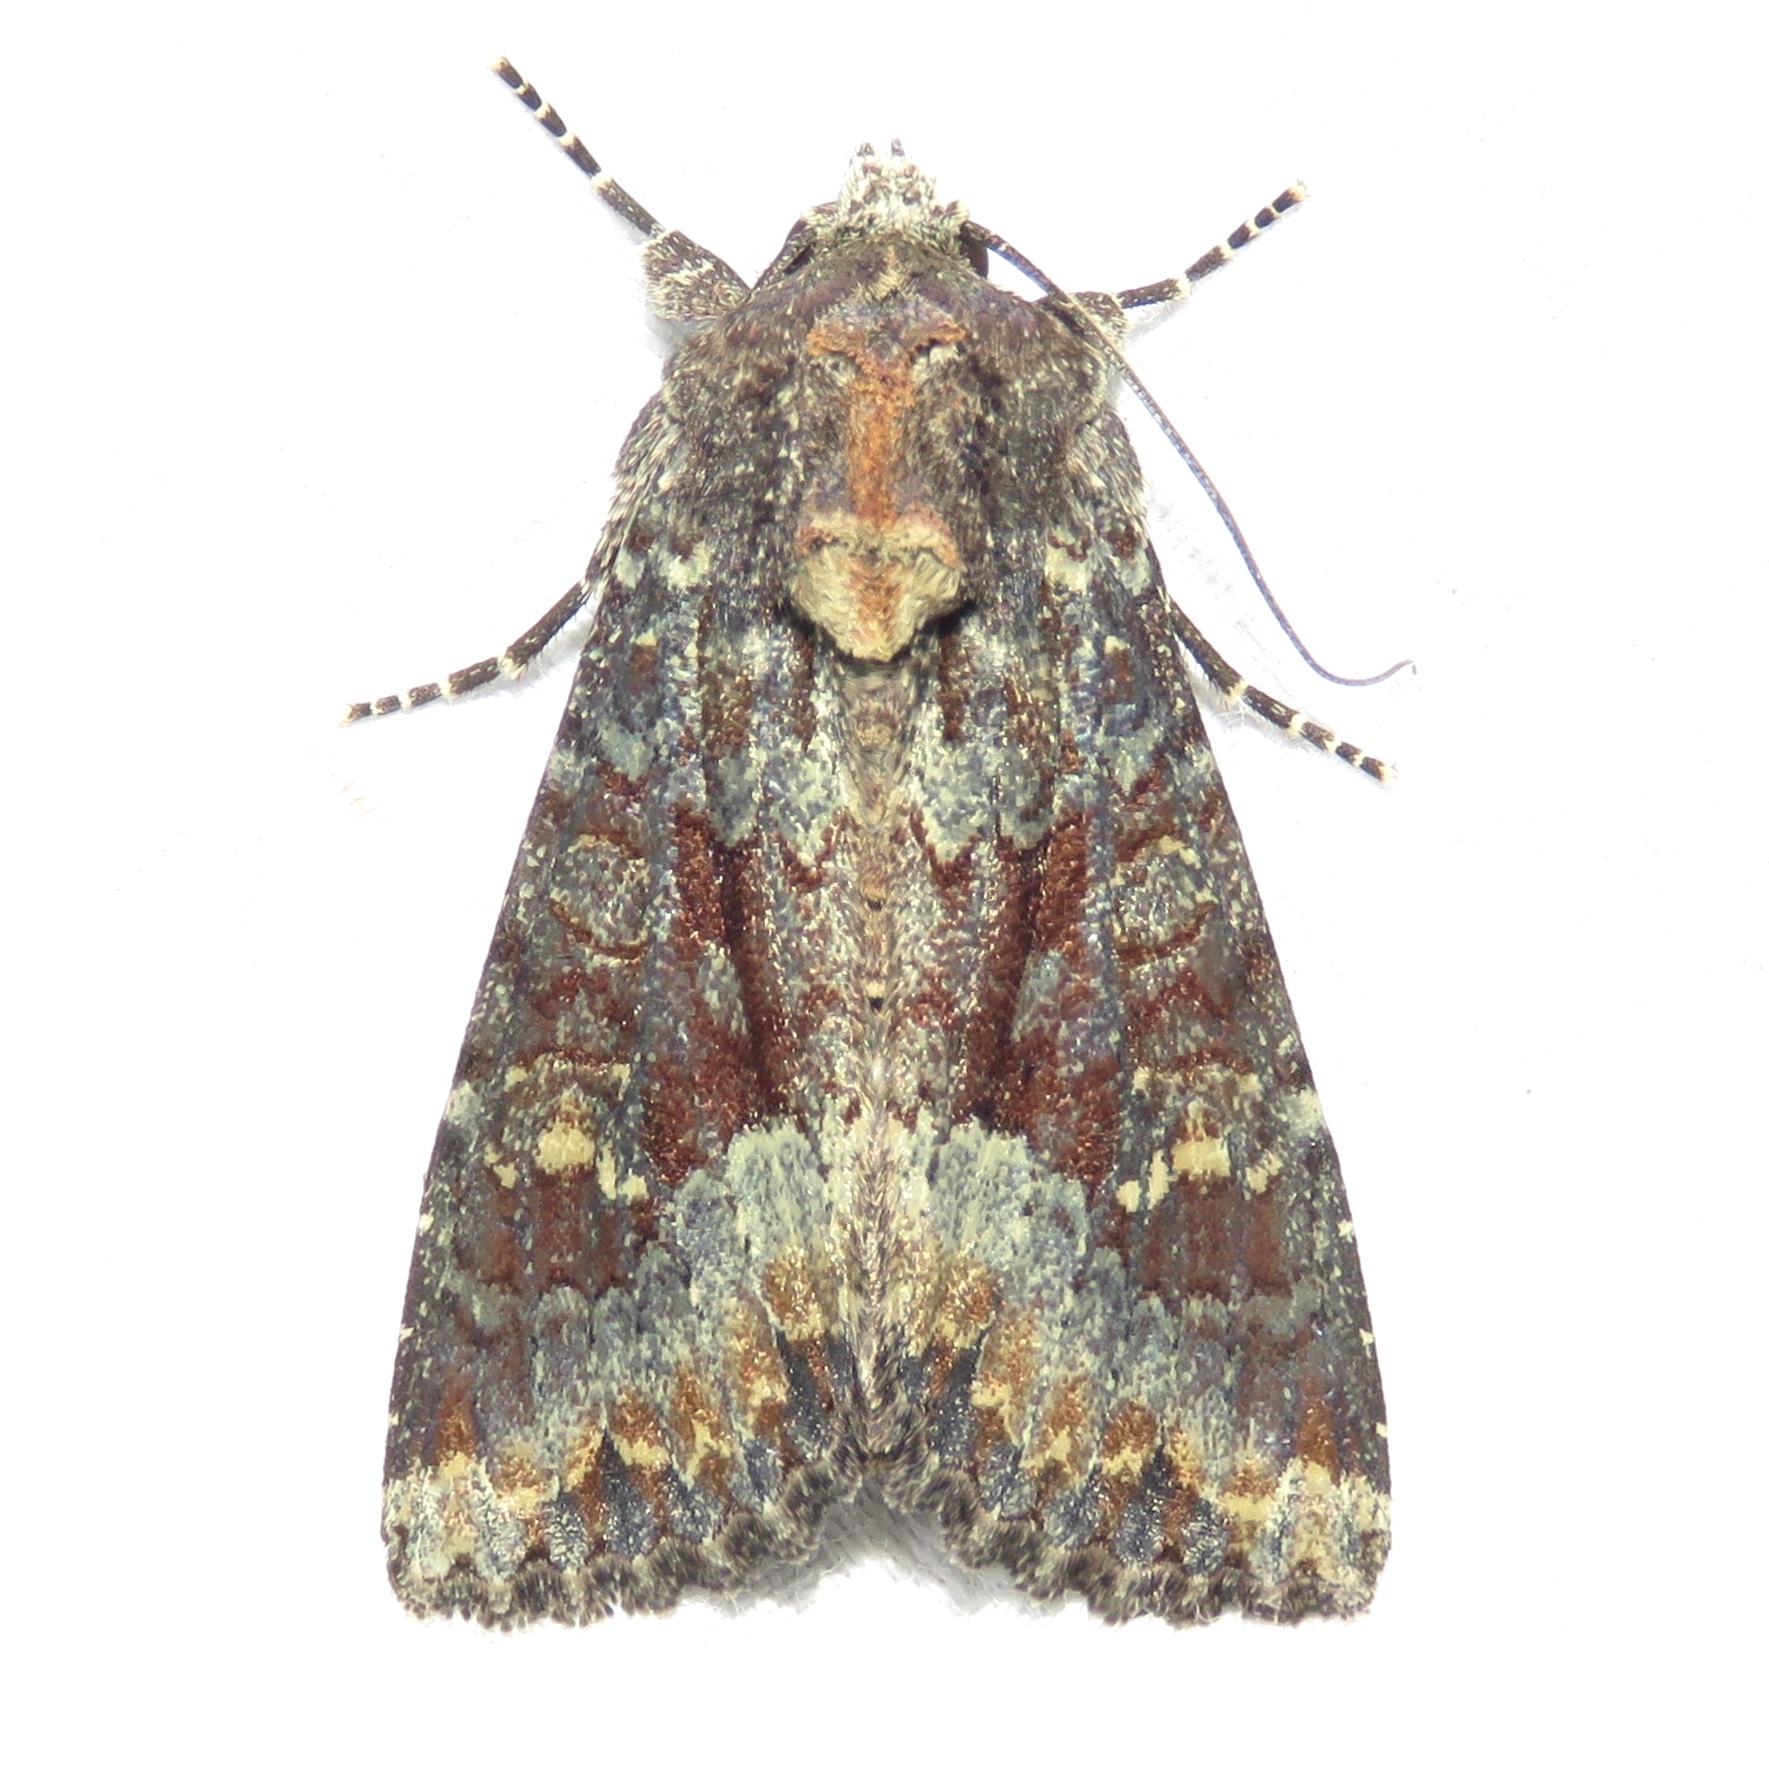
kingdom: Animalia
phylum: Arthropoda
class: Insecta
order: Lepidoptera
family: Noctuidae
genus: Apamea
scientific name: Apamea amputatrix
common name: Yellow-headed cutworm moth
